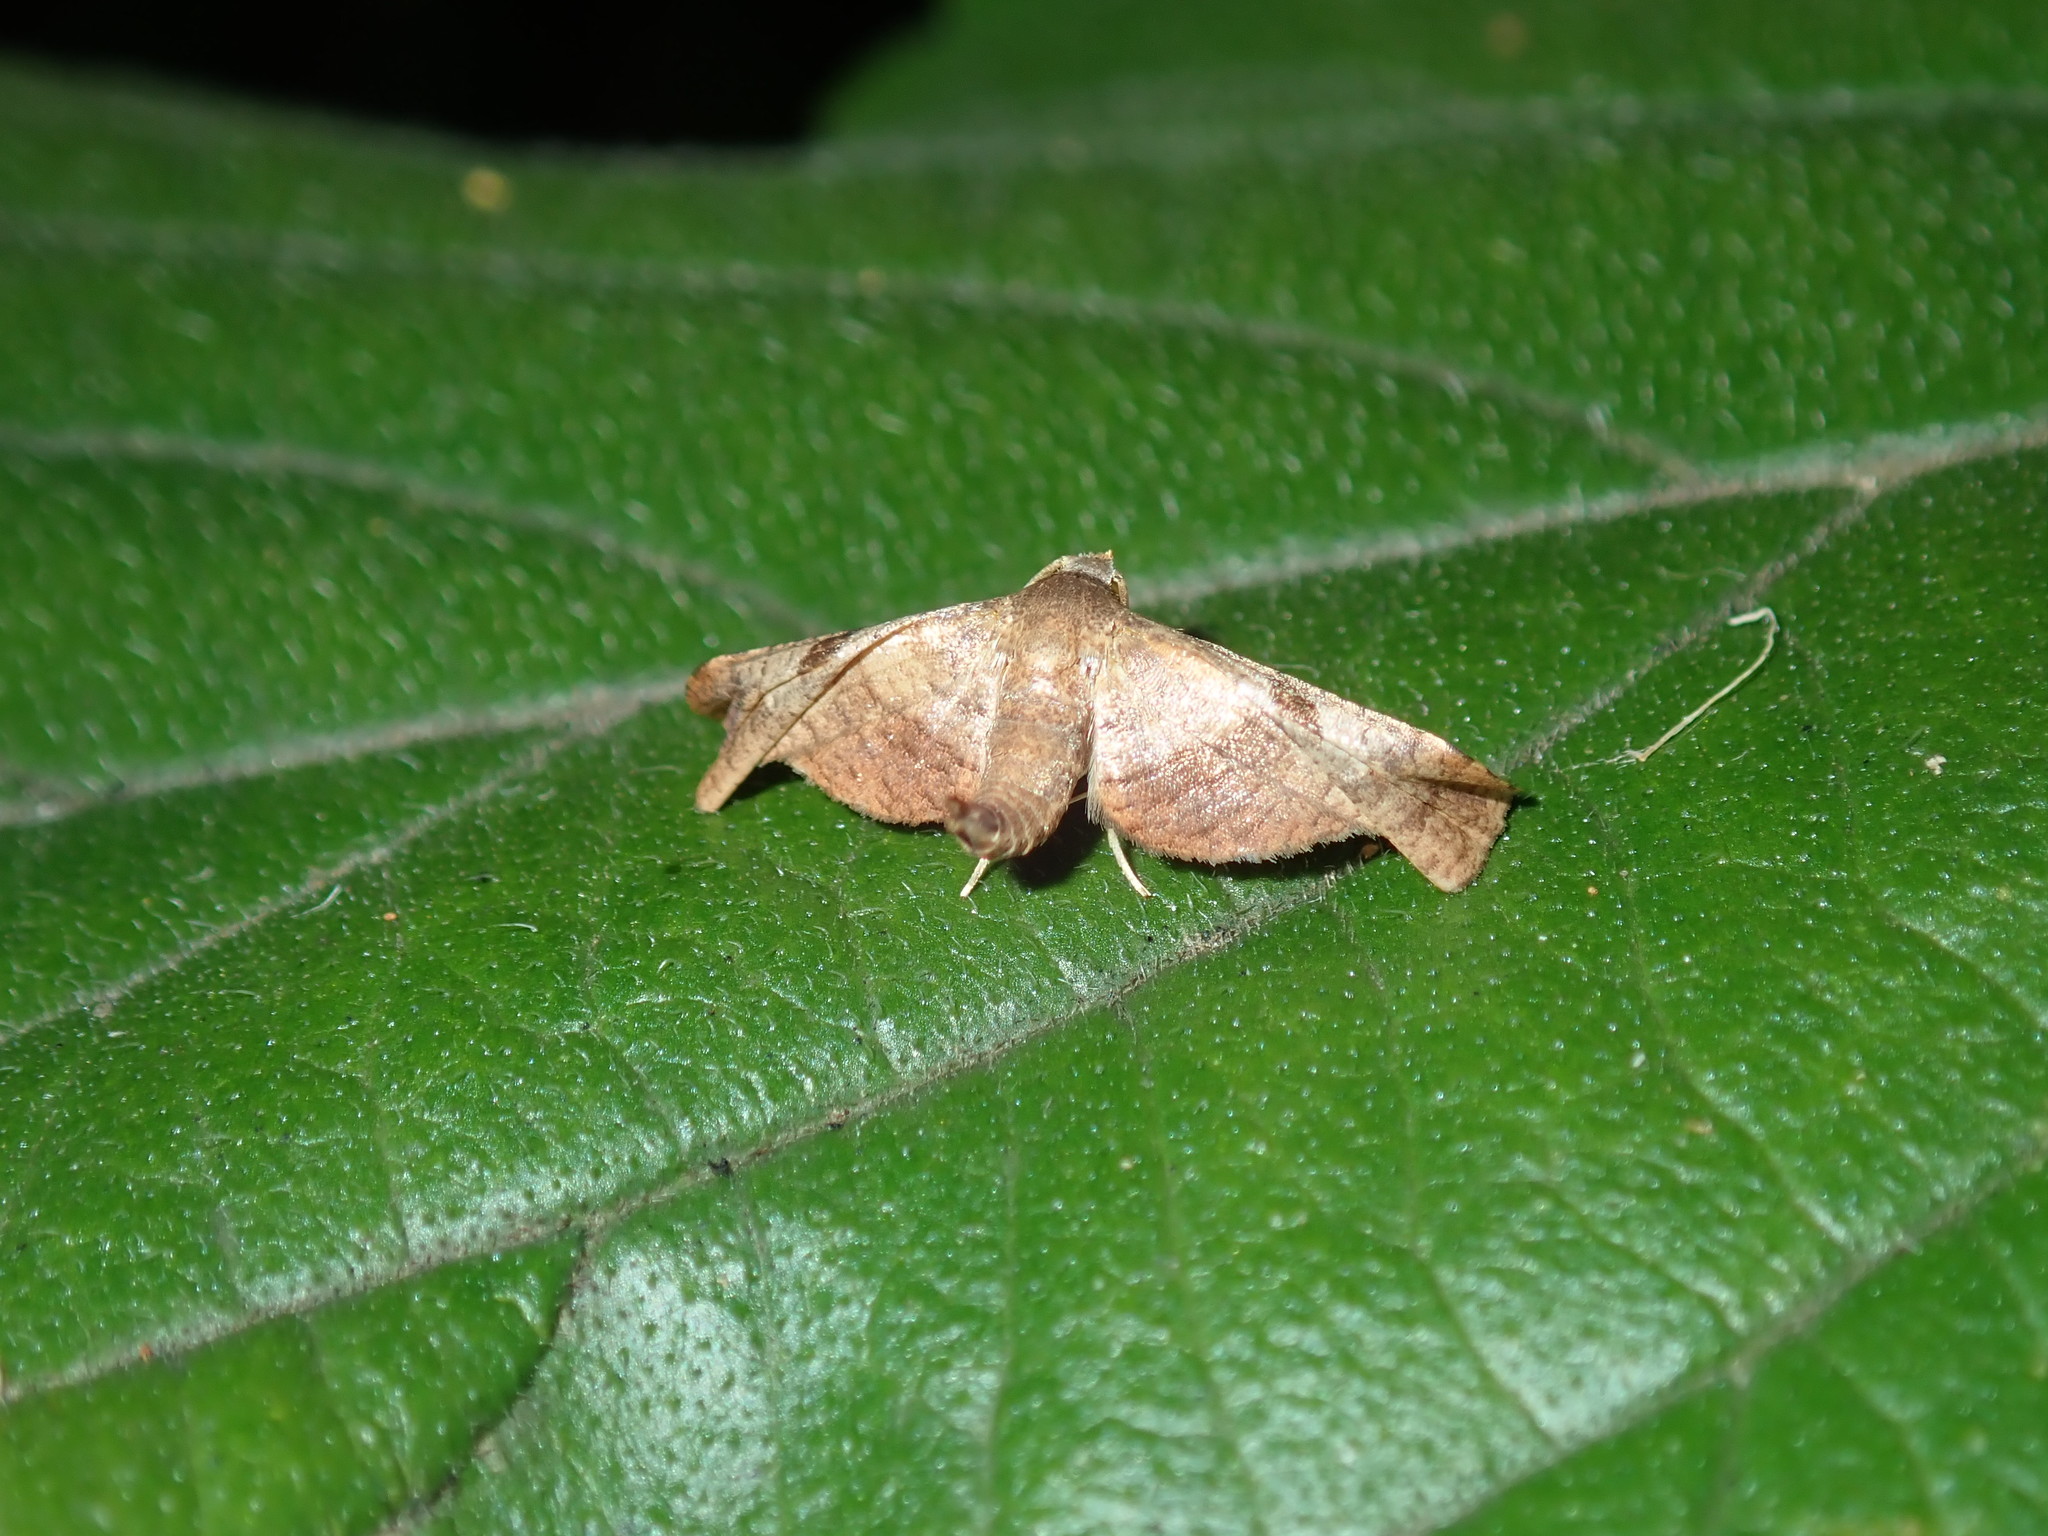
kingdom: Animalia
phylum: Arthropoda
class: Insecta
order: Lepidoptera
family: Thyrididae
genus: Kanshizeia
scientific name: Kanshizeia hemicycla
